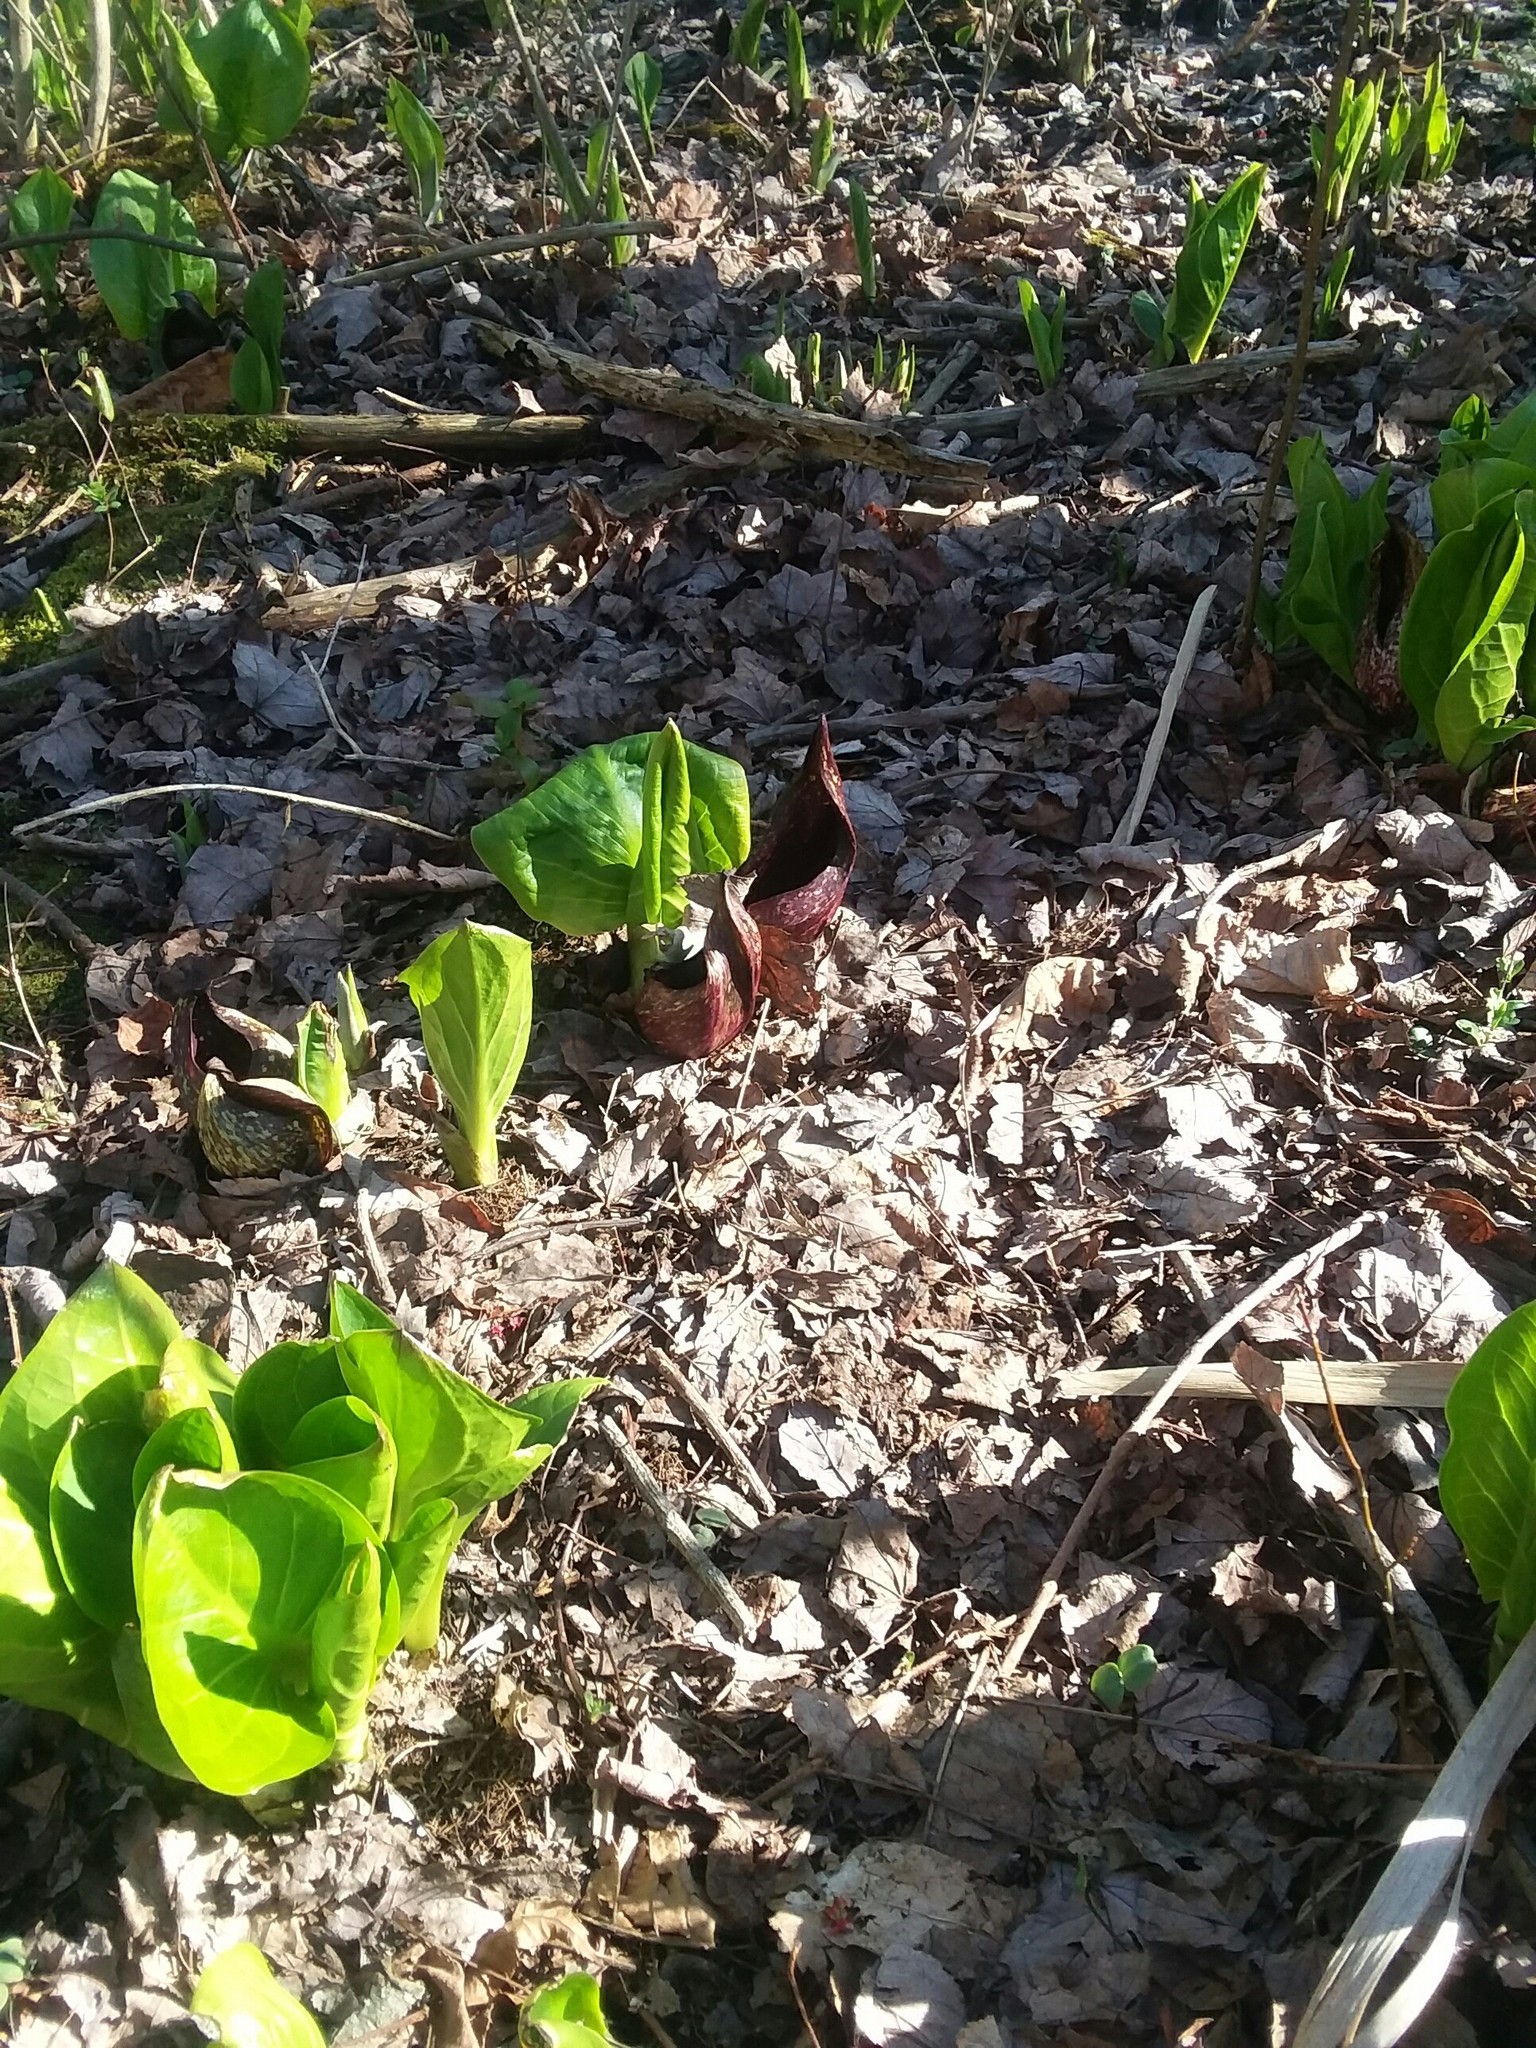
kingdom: Plantae
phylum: Tracheophyta
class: Liliopsida
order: Alismatales
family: Araceae
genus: Symplocarpus
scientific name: Symplocarpus foetidus
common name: Eastern skunk cabbage
